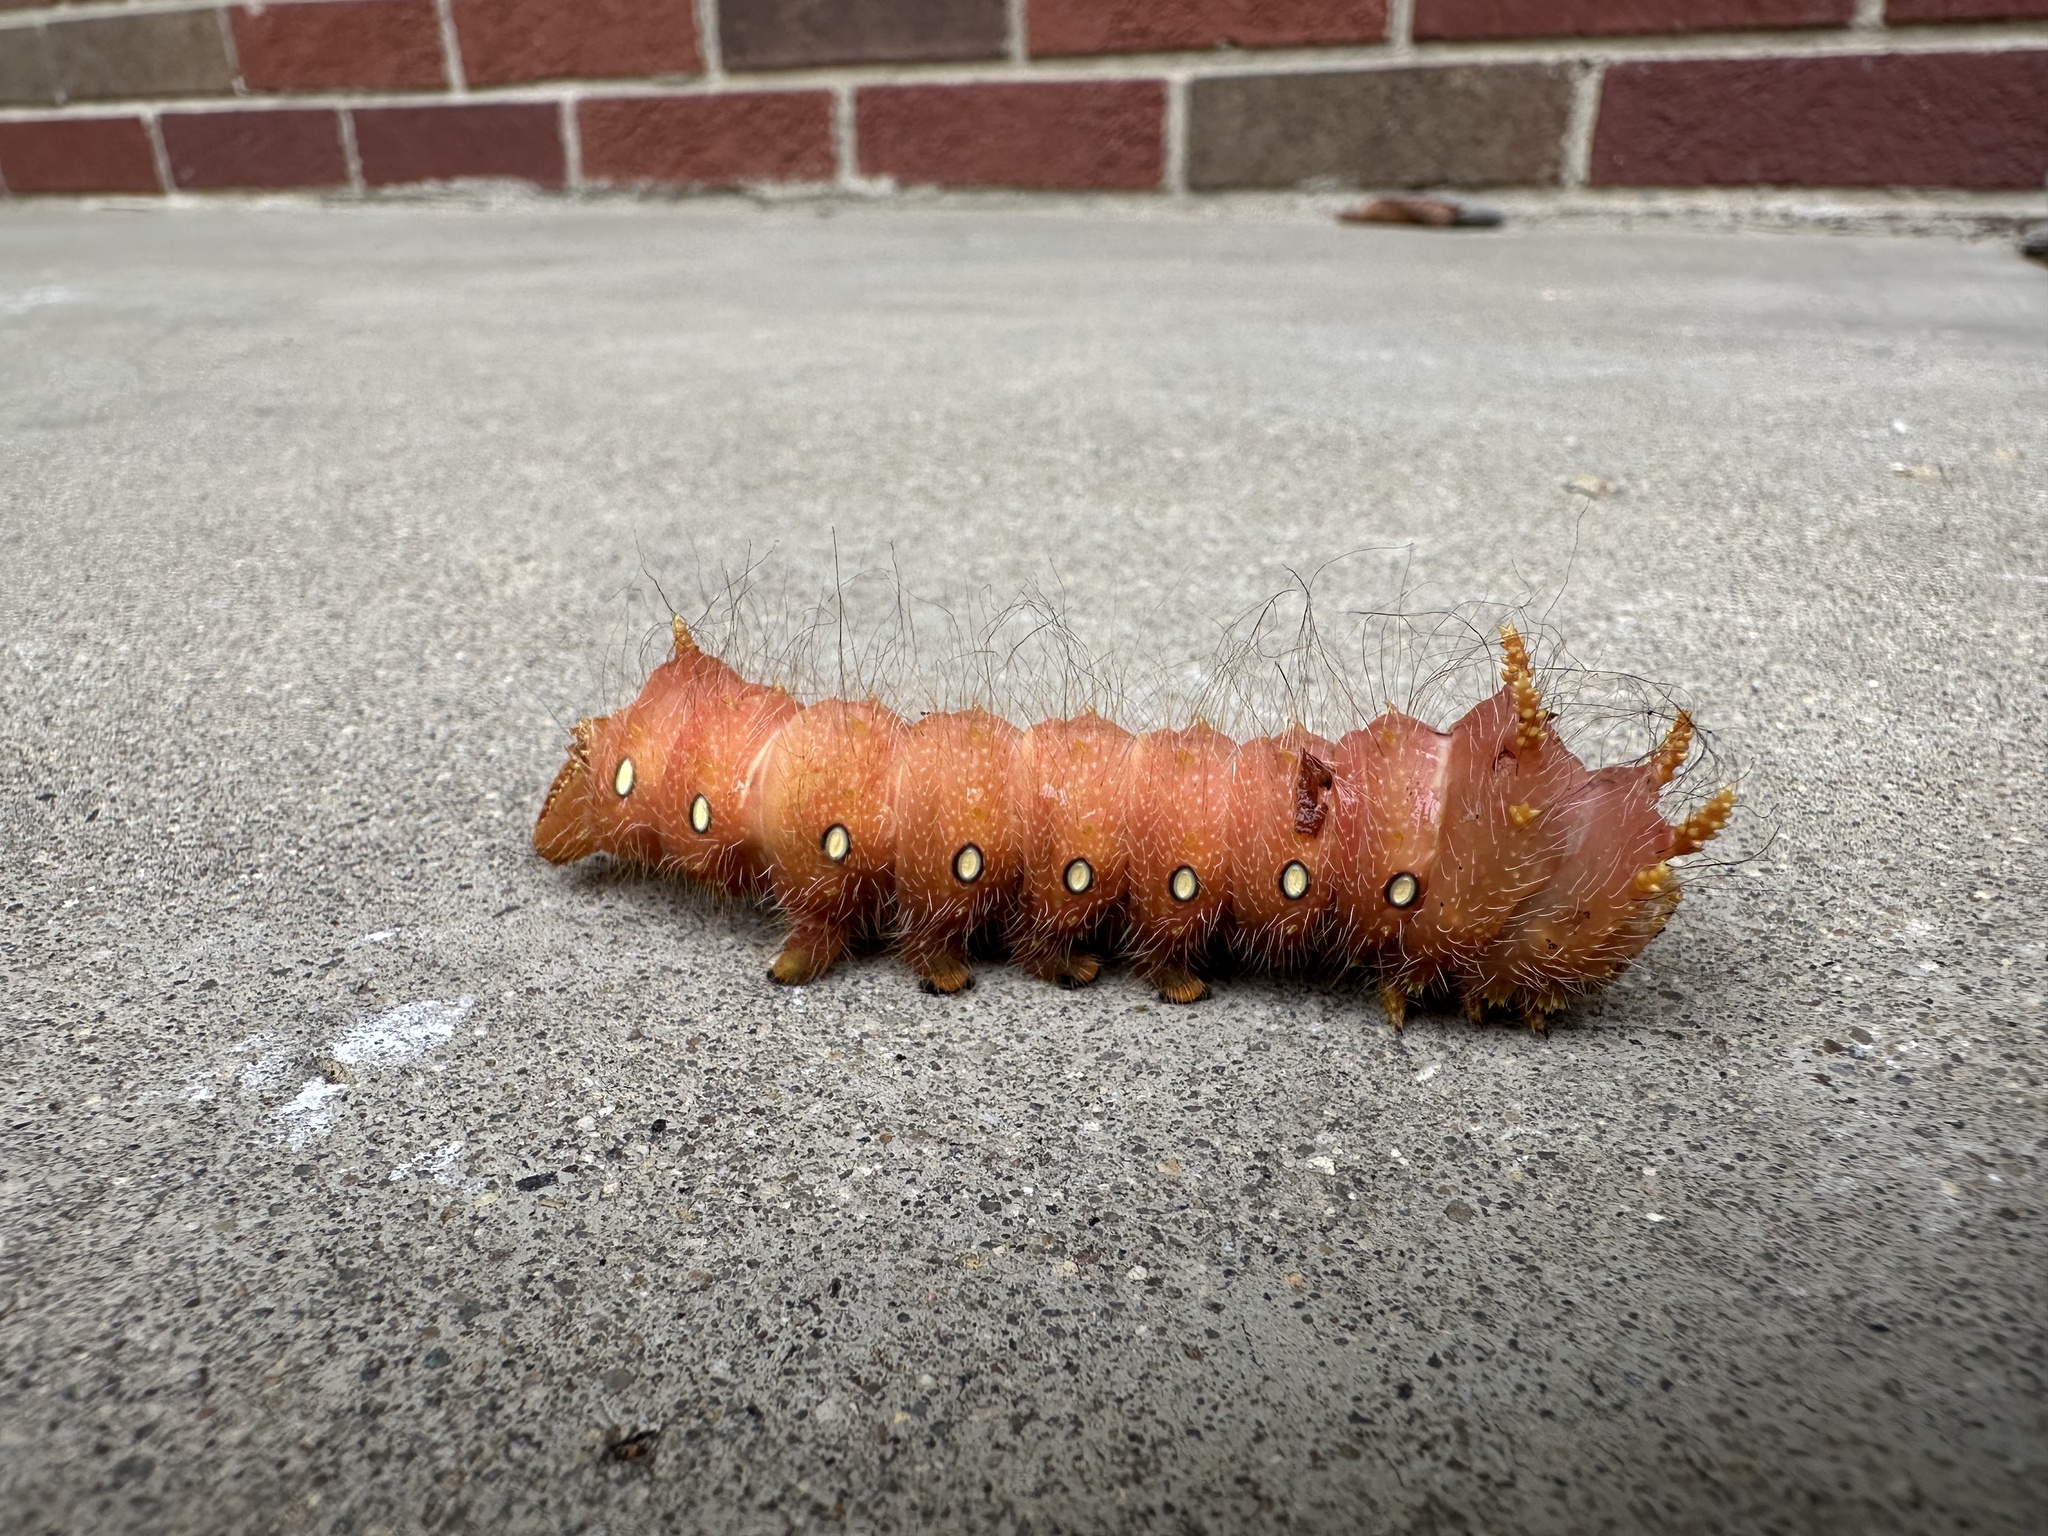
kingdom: Animalia
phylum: Arthropoda
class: Insecta
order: Lepidoptera
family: Saturniidae
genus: Eacles
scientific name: Eacles imperialis
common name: Imperial moth
